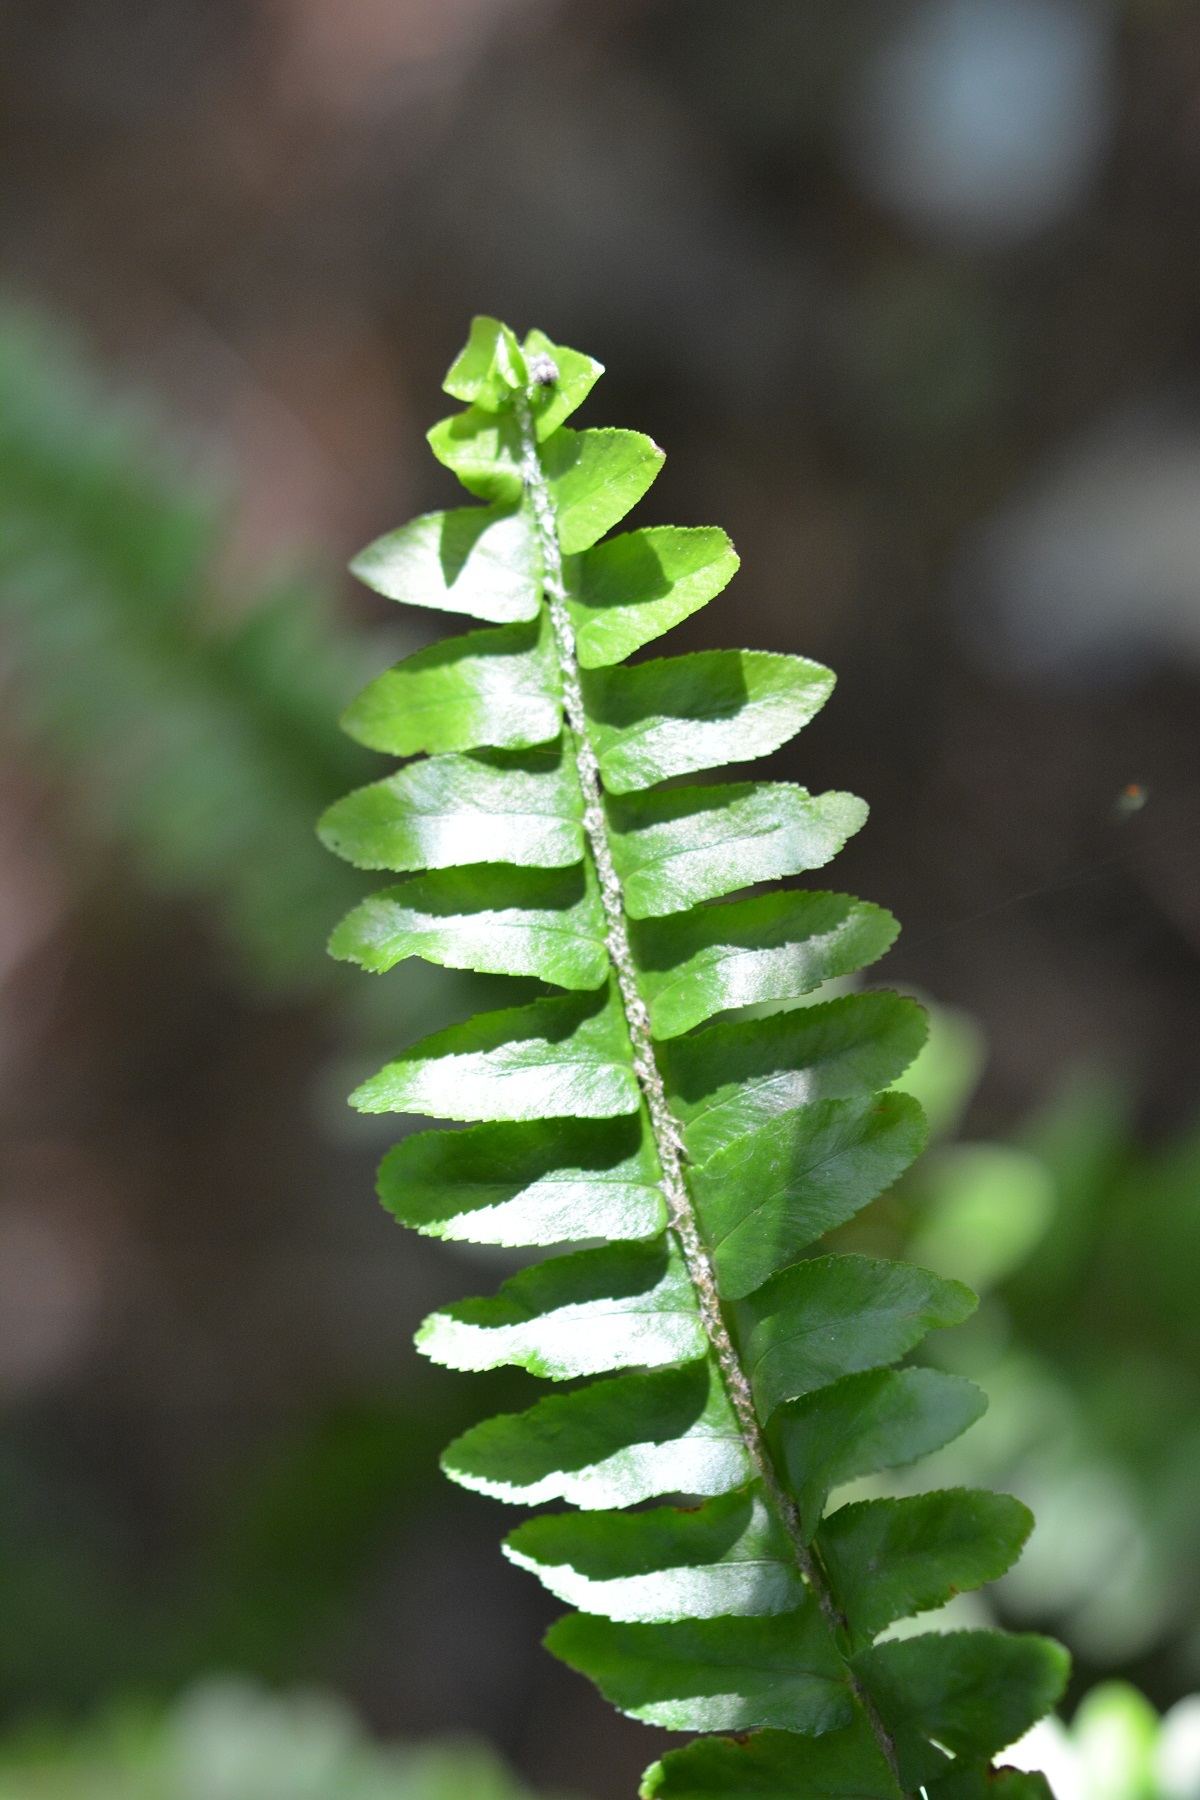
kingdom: Plantae
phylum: Tracheophyta
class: Polypodiopsida
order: Polypodiales
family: Nephrolepidaceae
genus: Nephrolepis
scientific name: Nephrolepis rivularis
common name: Streamside swordfern
